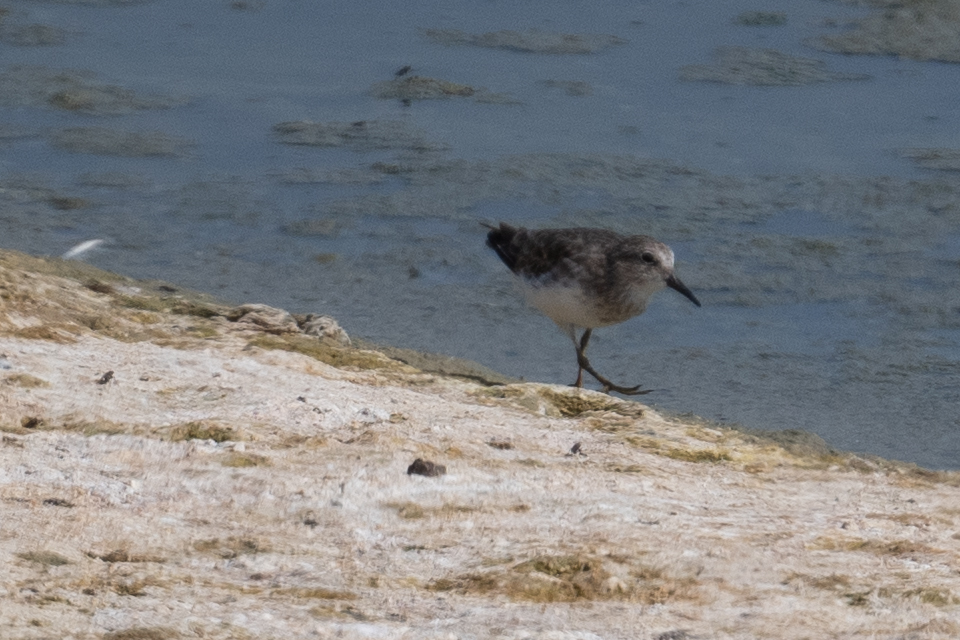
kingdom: Animalia
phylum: Chordata
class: Aves
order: Charadriiformes
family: Scolopacidae
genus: Calidris
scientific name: Calidris minutilla
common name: Least sandpiper
